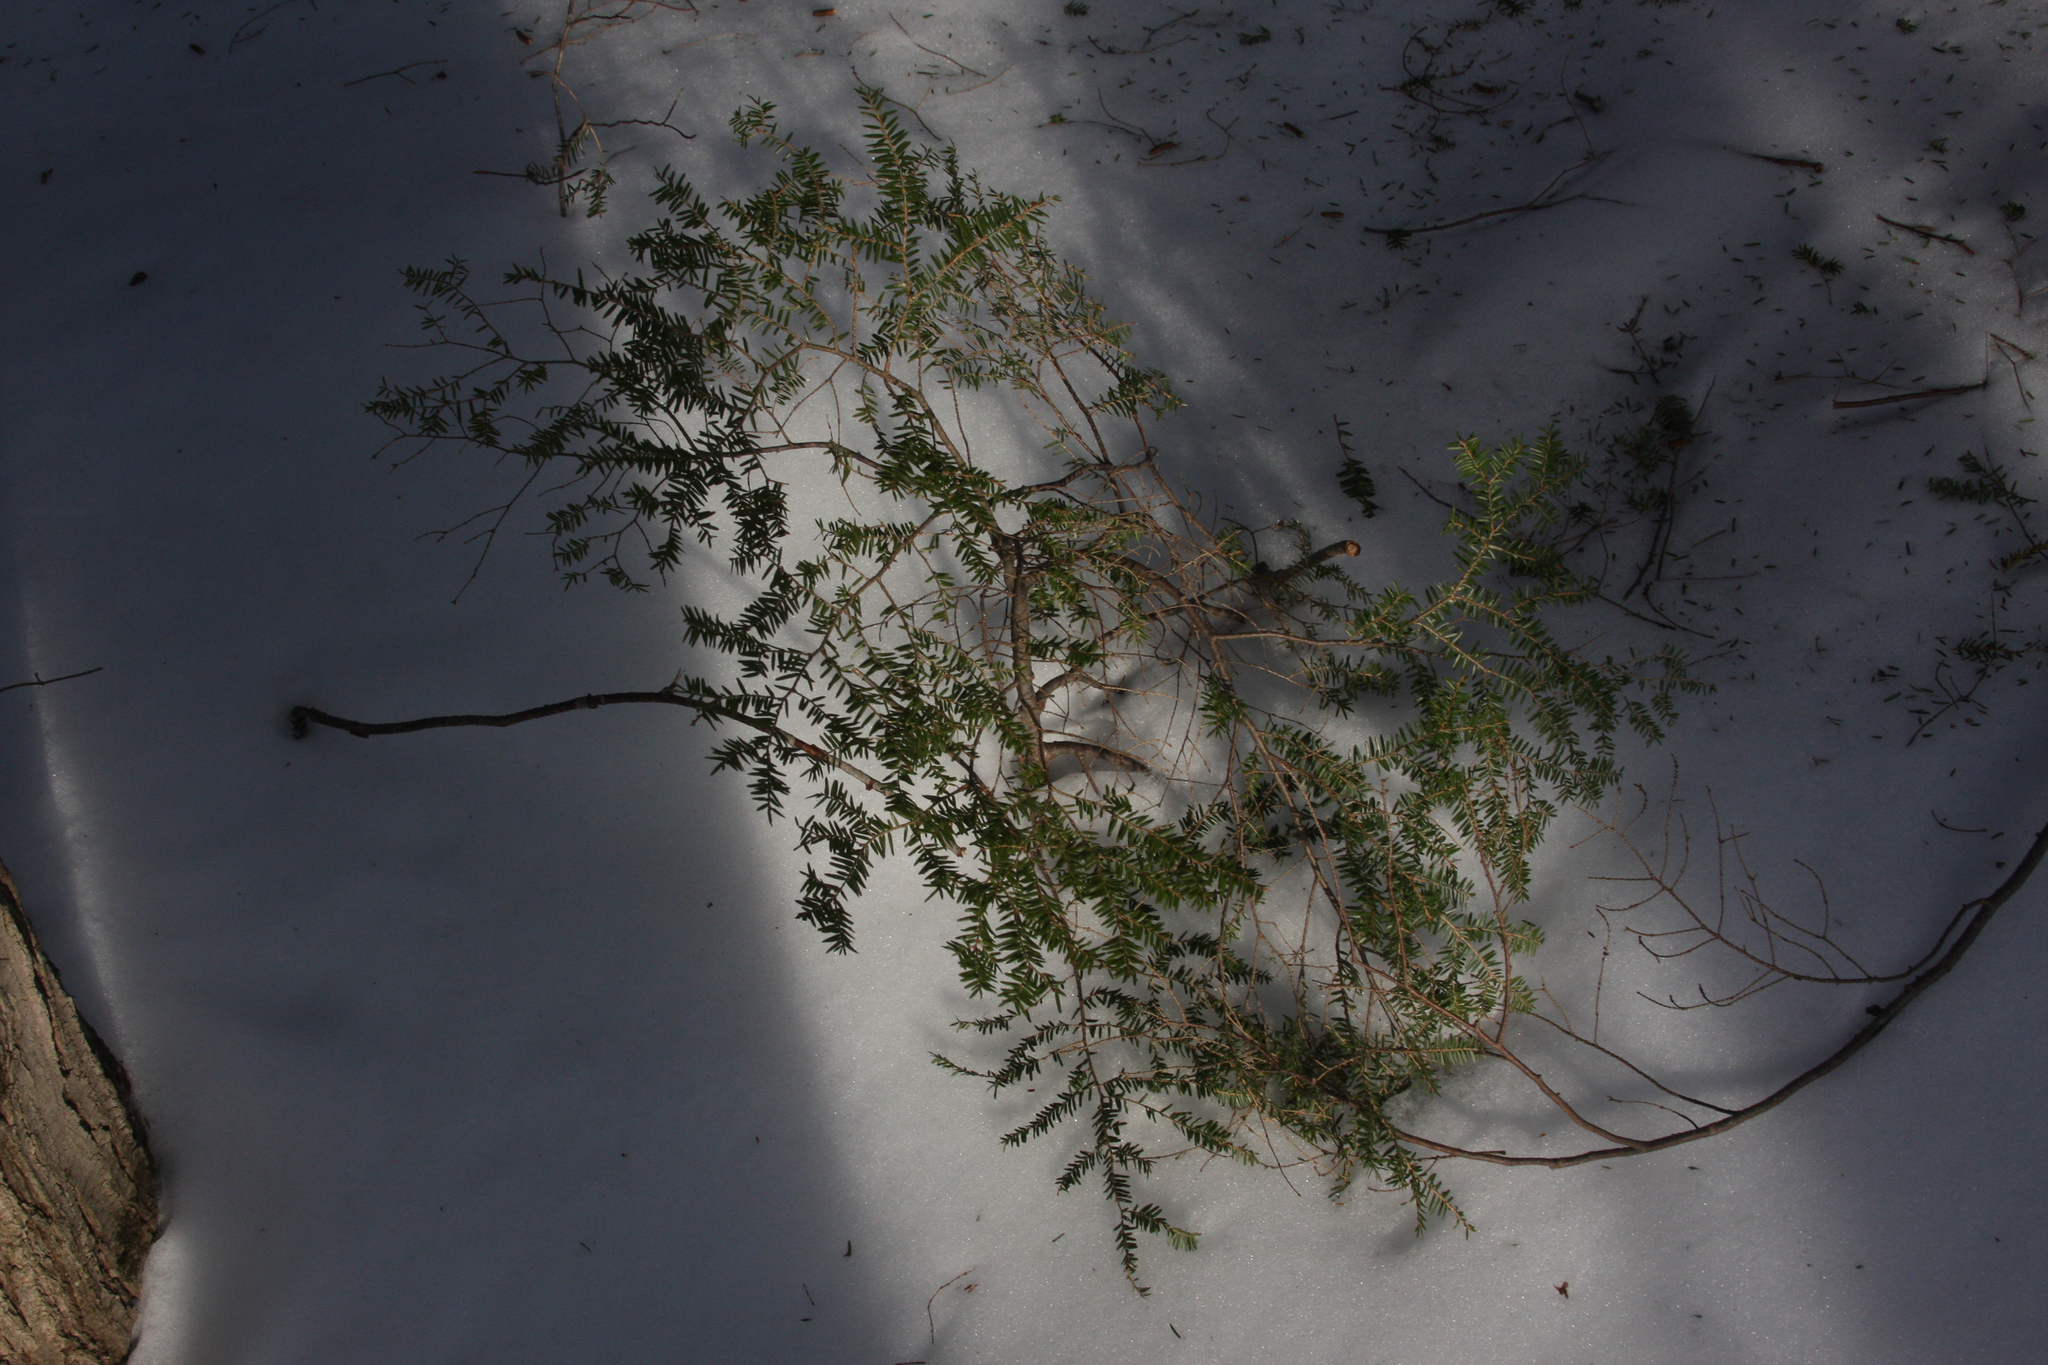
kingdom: Plantae
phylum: Tracheophyta
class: Pinopsida
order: Pinales
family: Pinaceae
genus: Tsuga
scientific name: Tsuga canadensis
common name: Eastern hemlock
